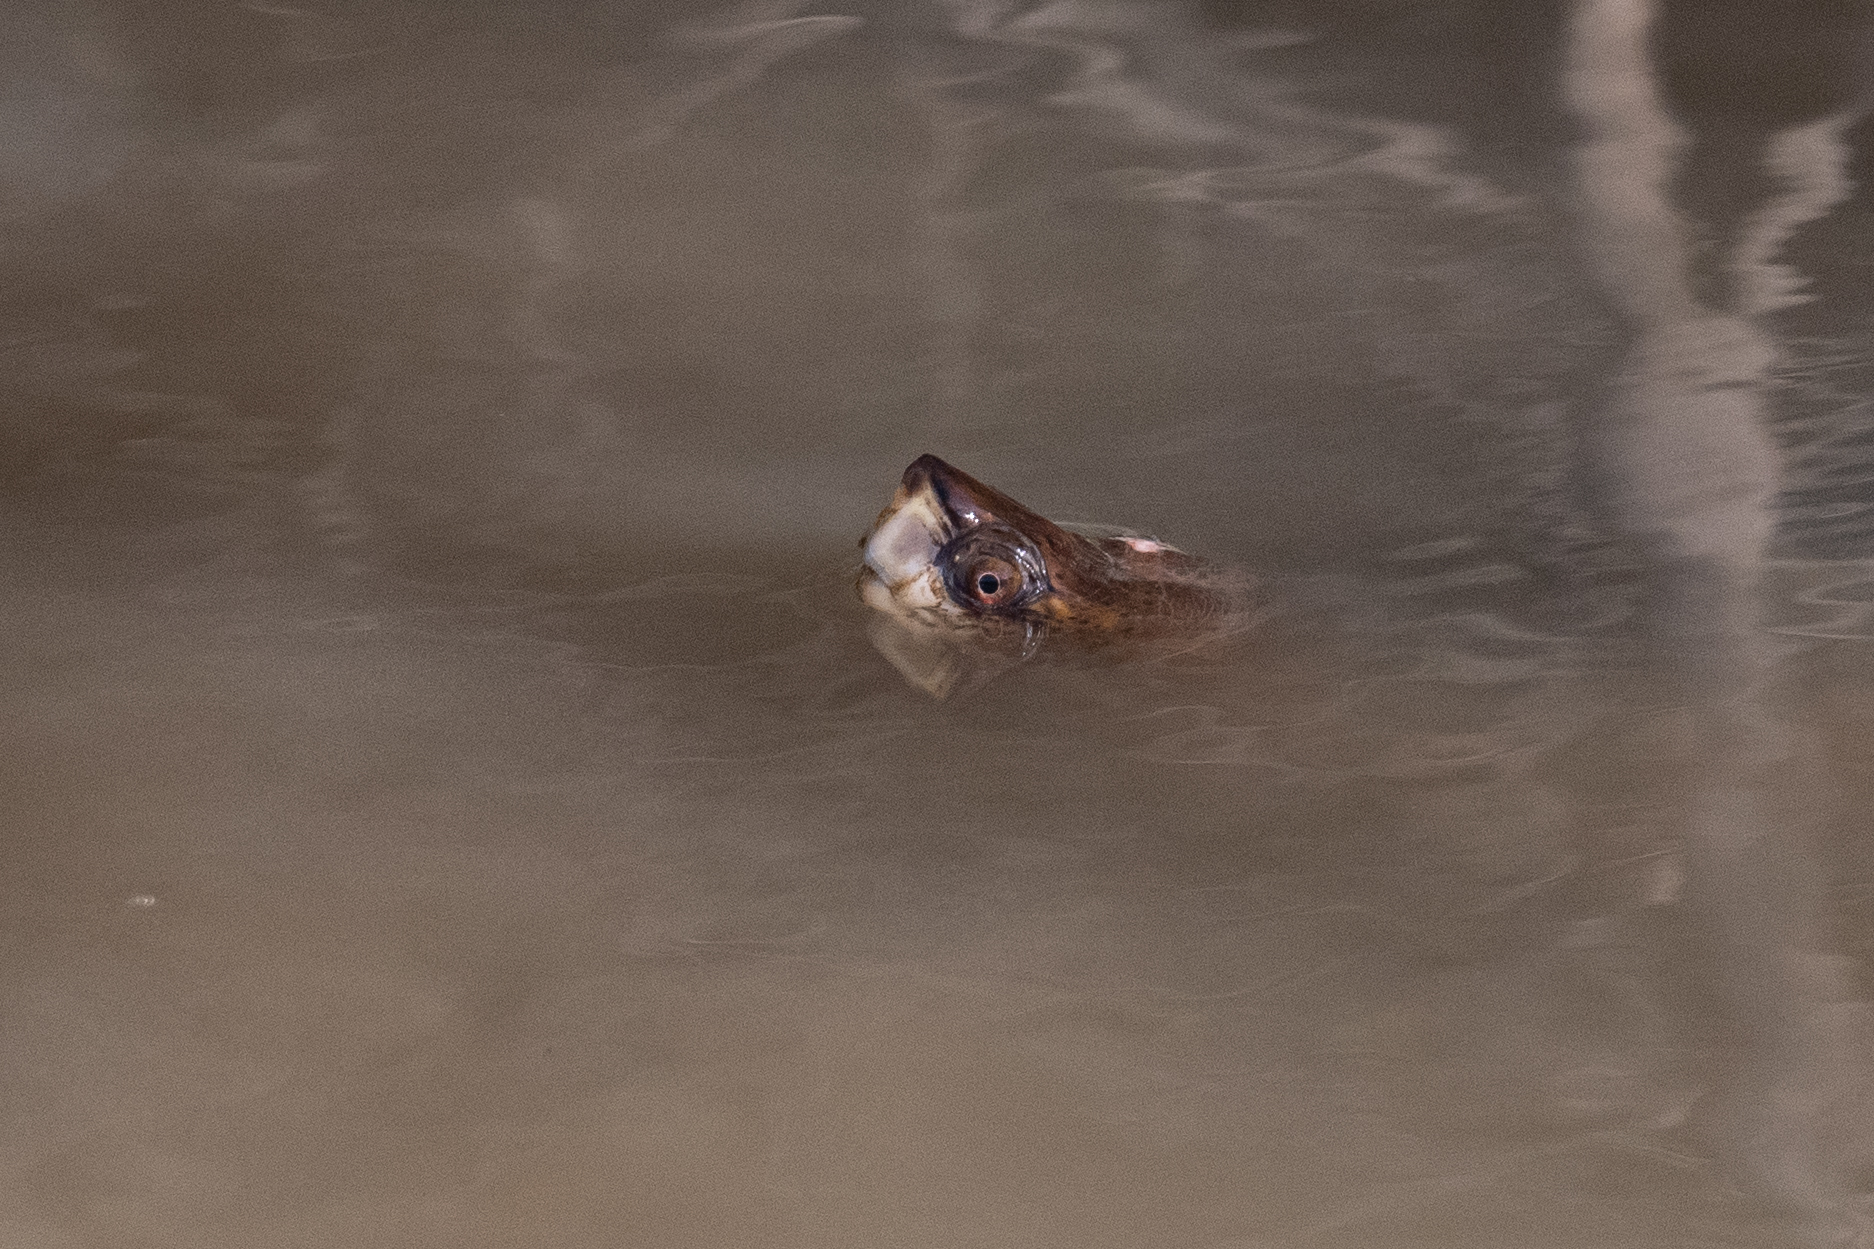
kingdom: Animalia
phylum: Chordata
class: Testudines
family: Emydidae
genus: Actinemys
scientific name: Actinemys marmorata
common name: Western pond turtle
